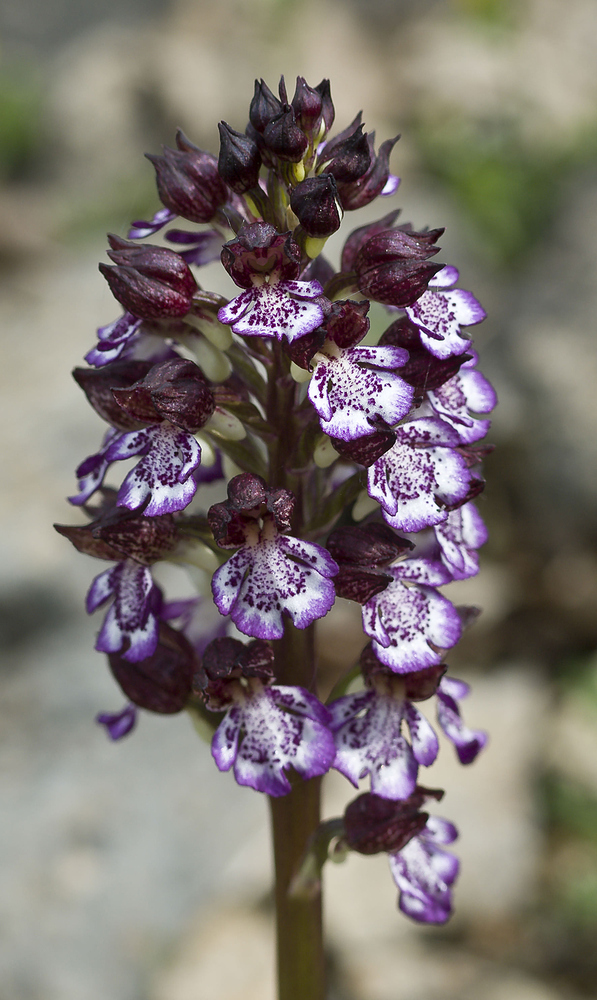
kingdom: Plantae
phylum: Tracheophyta
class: Liliopsida
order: Asparagales
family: Orchidaceae
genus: Orchis
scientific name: Orchis purpurea
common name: Lady orchid
